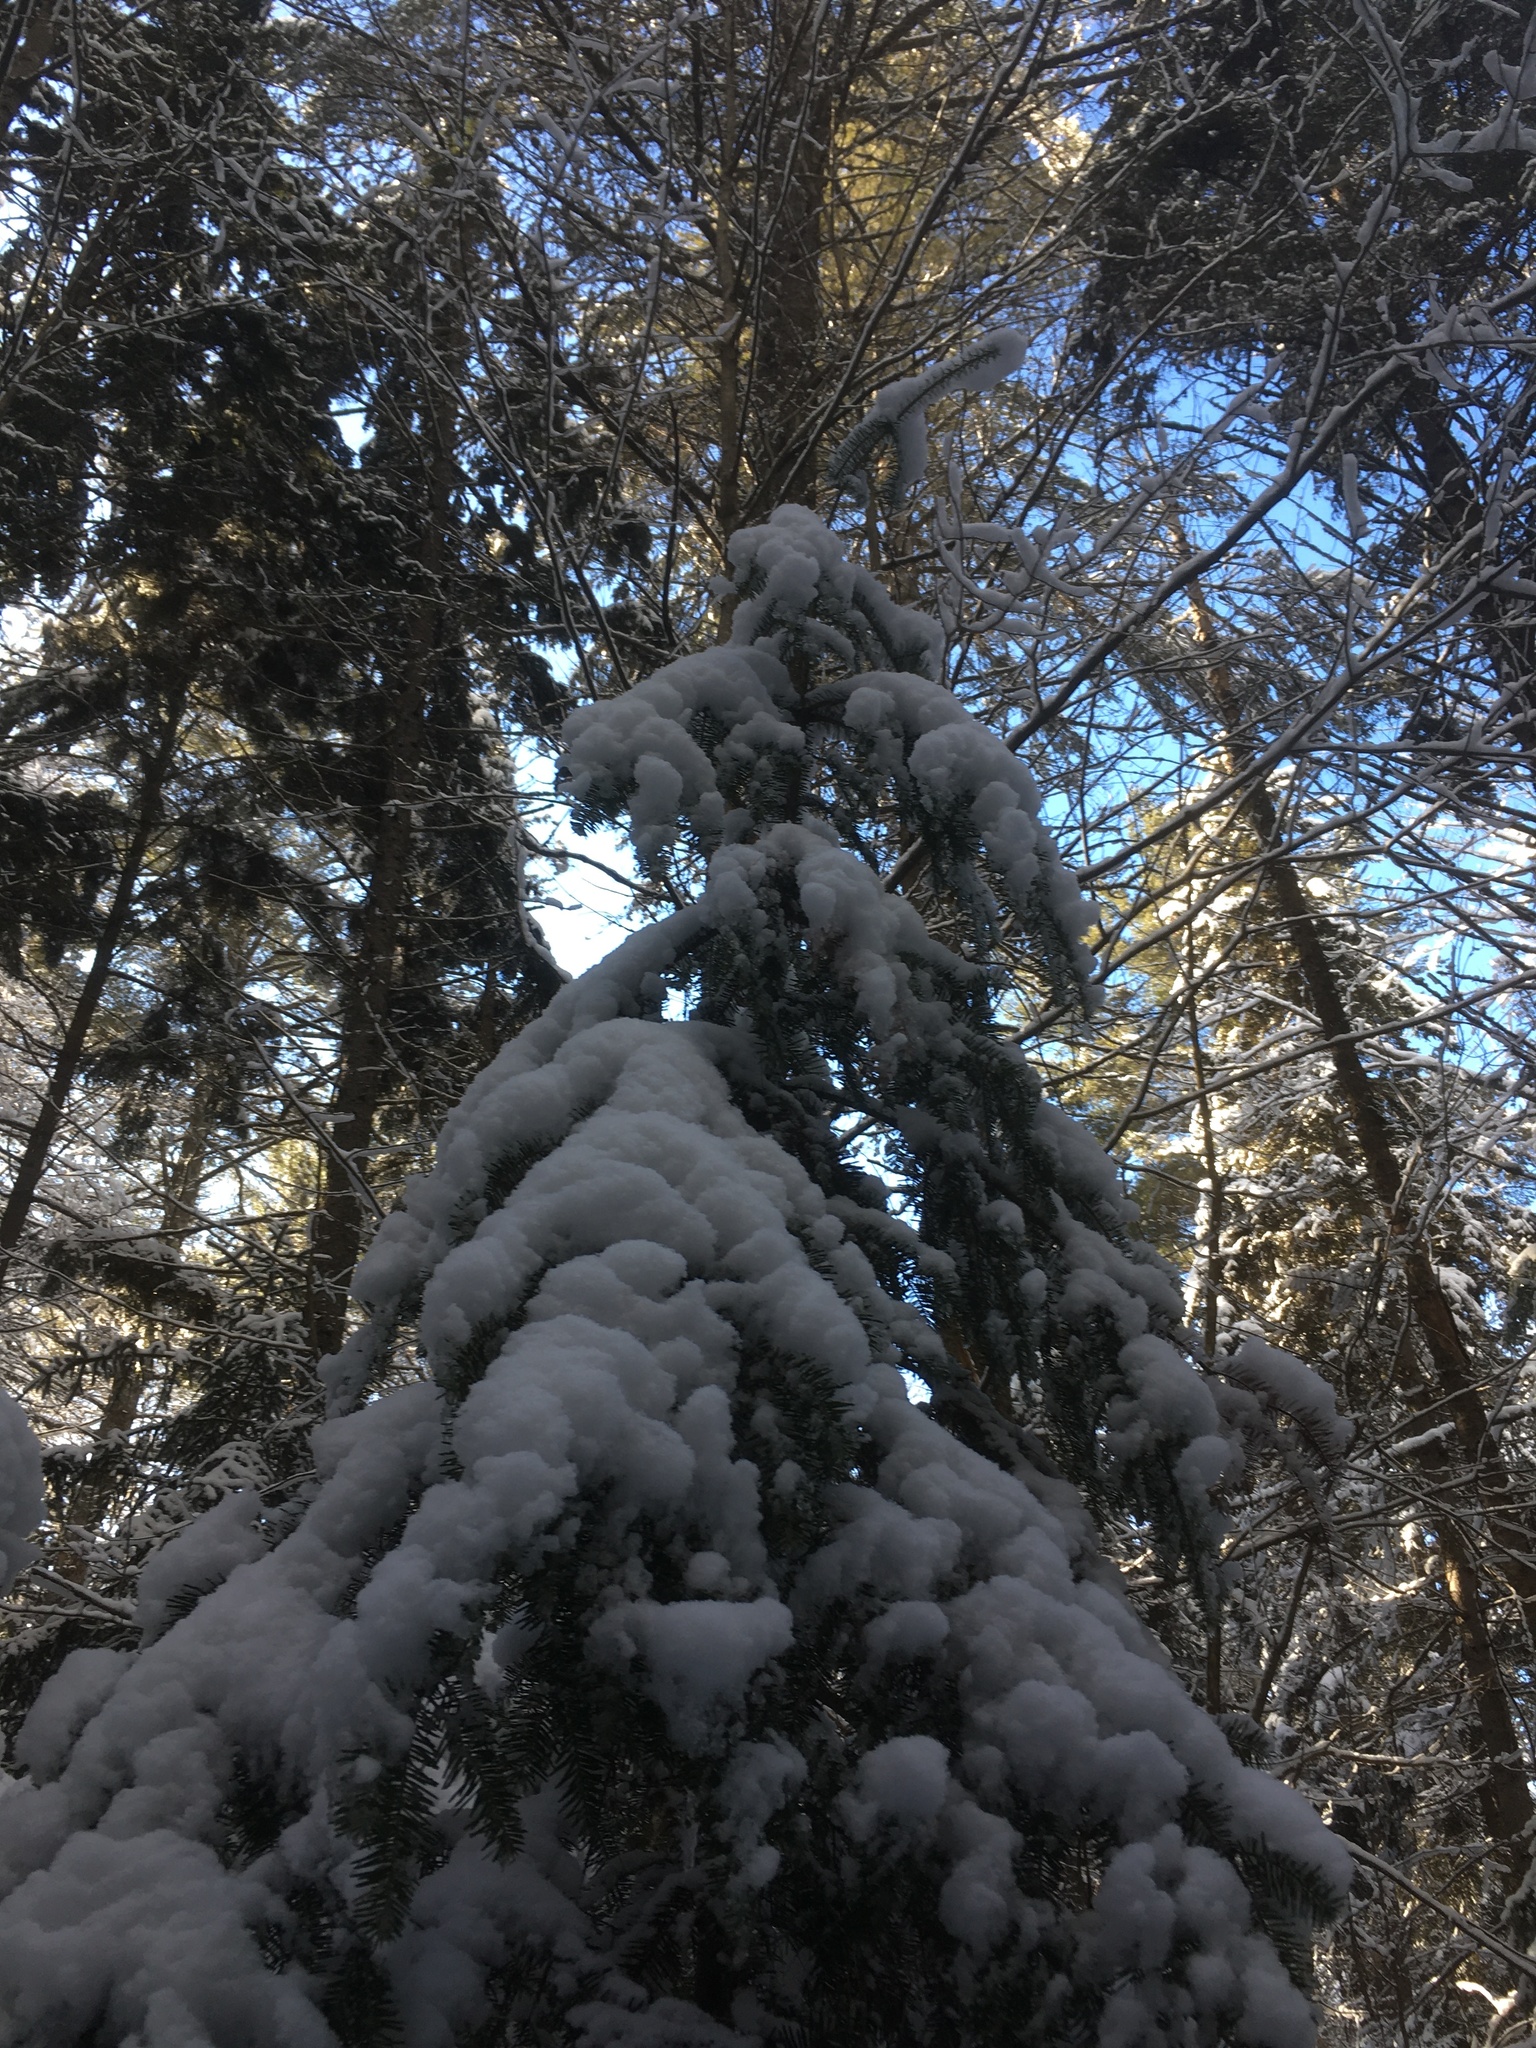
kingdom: Plantae
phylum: Tracheophyta
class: Pinopsida
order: Pinales
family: Pinaceae
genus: Abies
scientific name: Abies balsamea
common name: Balsam fir
